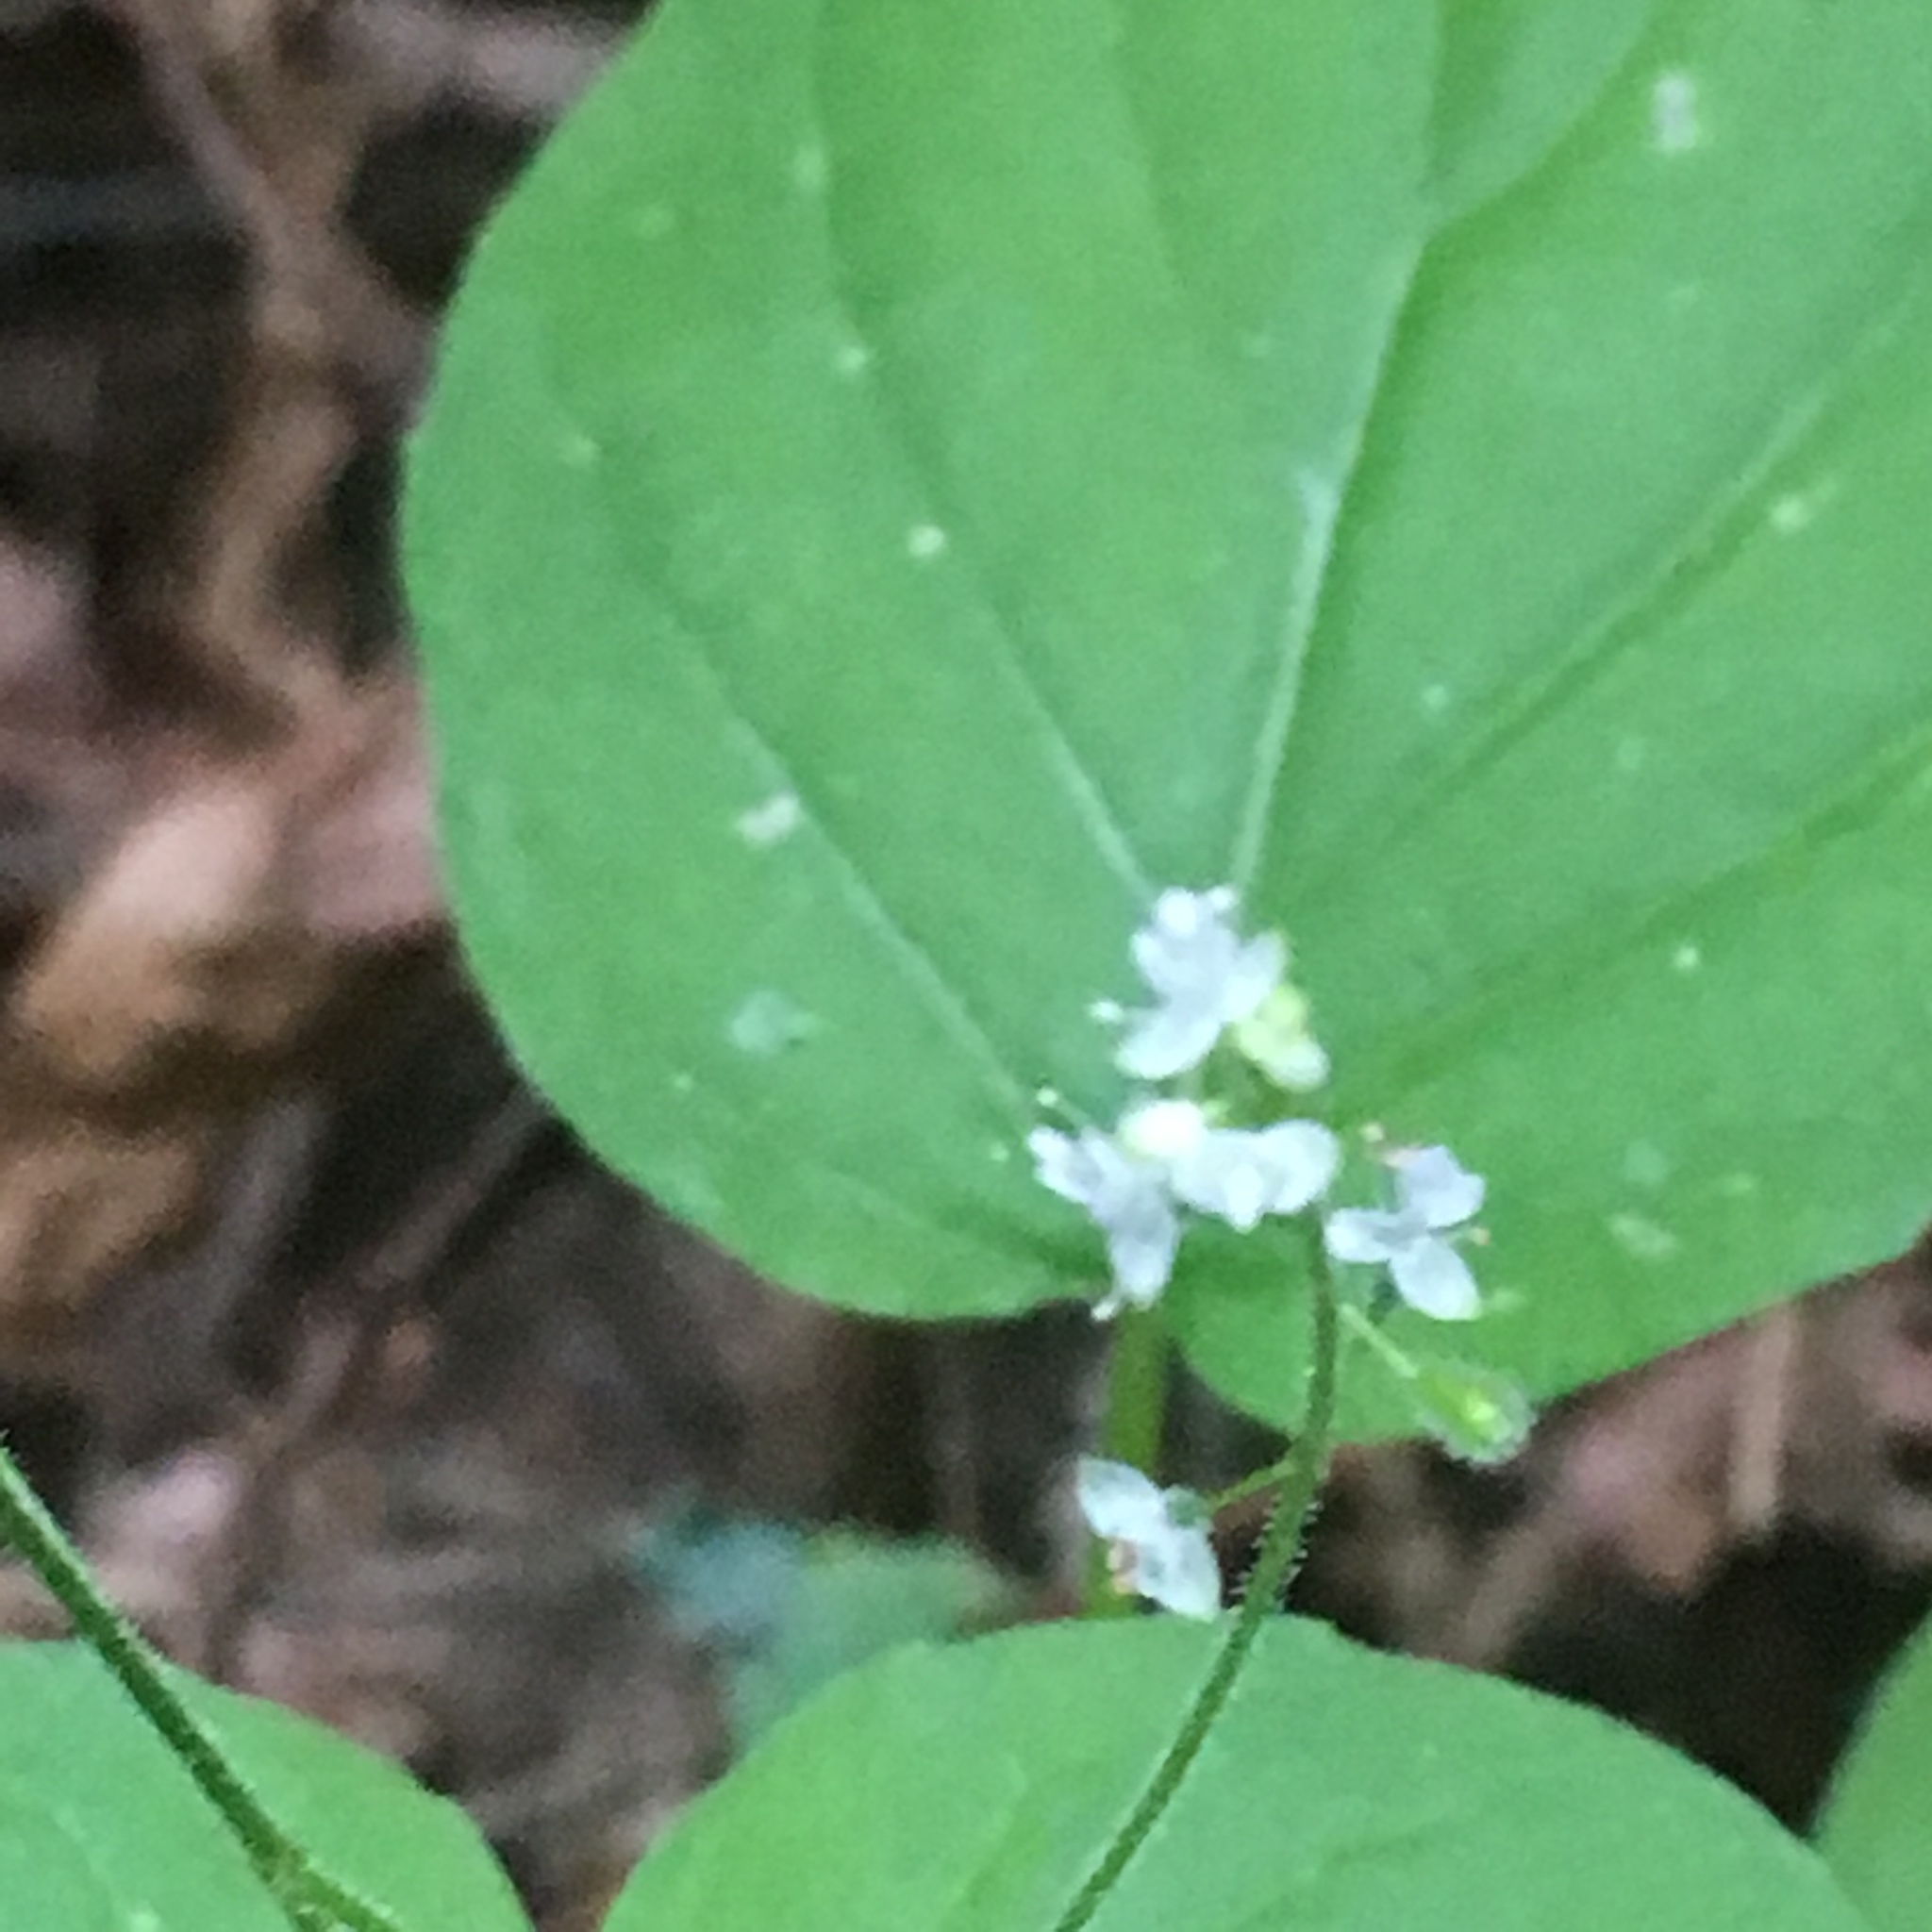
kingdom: Plantae
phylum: Tracheophyta
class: Magnoliopsida
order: Myrtales
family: Onagraceae
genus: Circaea
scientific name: Circaea alpina
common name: Alpine enchanter's-nightshade
